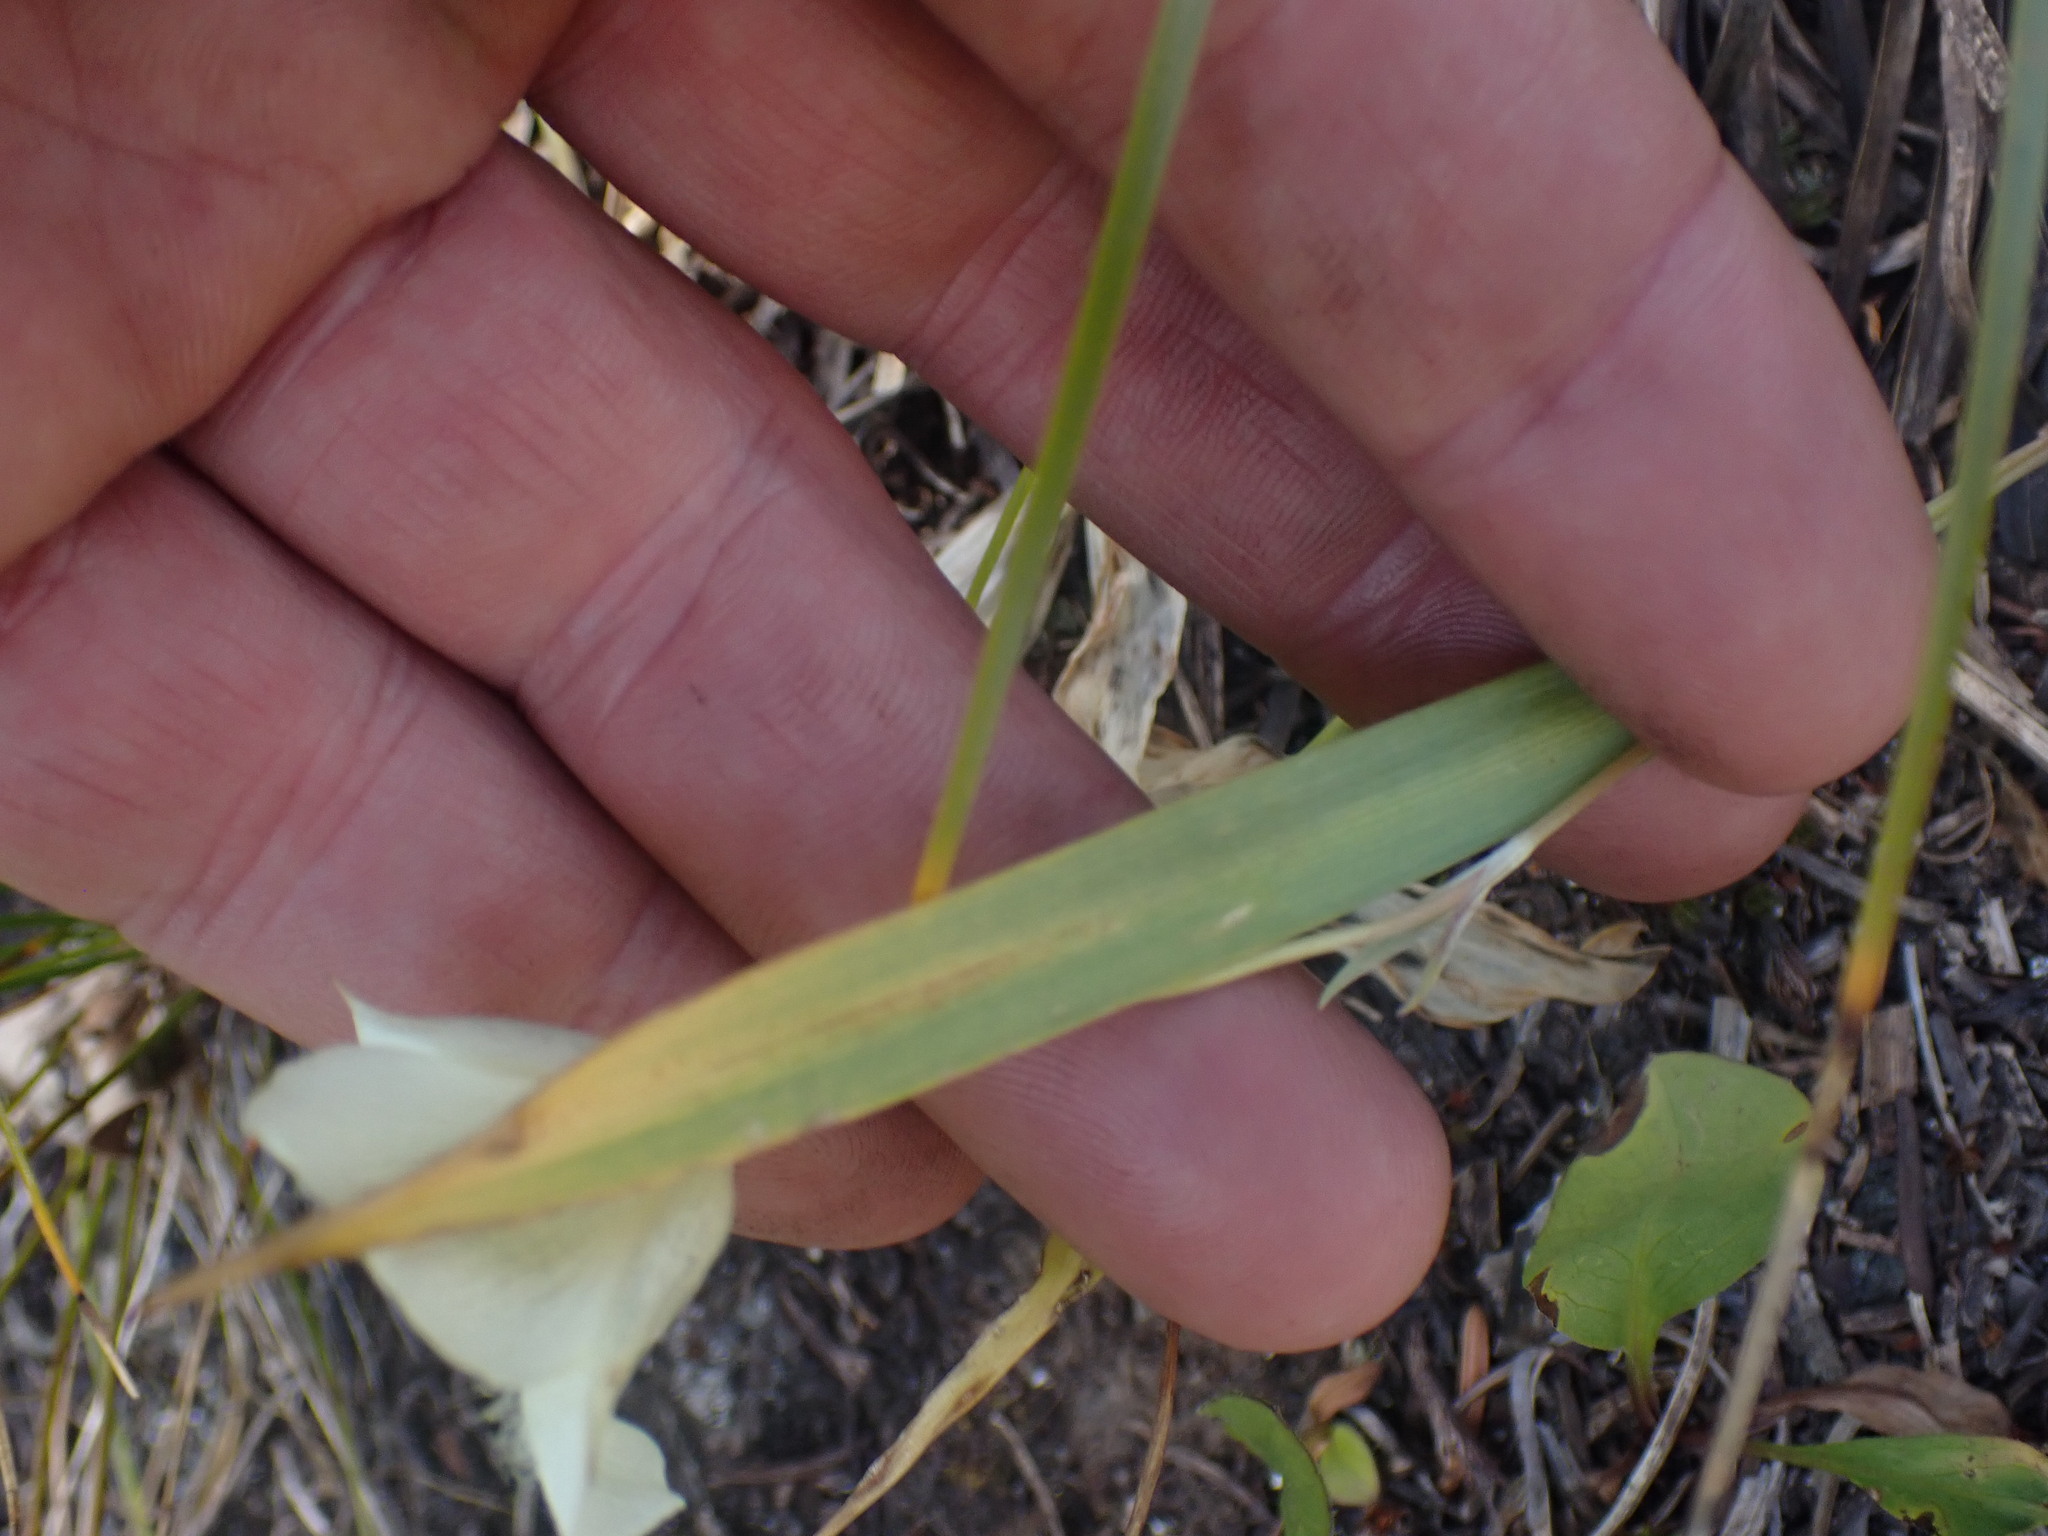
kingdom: Plantae
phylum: Tracheophyta
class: Liliopsida
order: Liliales
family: Liliaceae
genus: Calochortus
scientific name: Calochortus apiculatus
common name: Baker's mariposa lily
